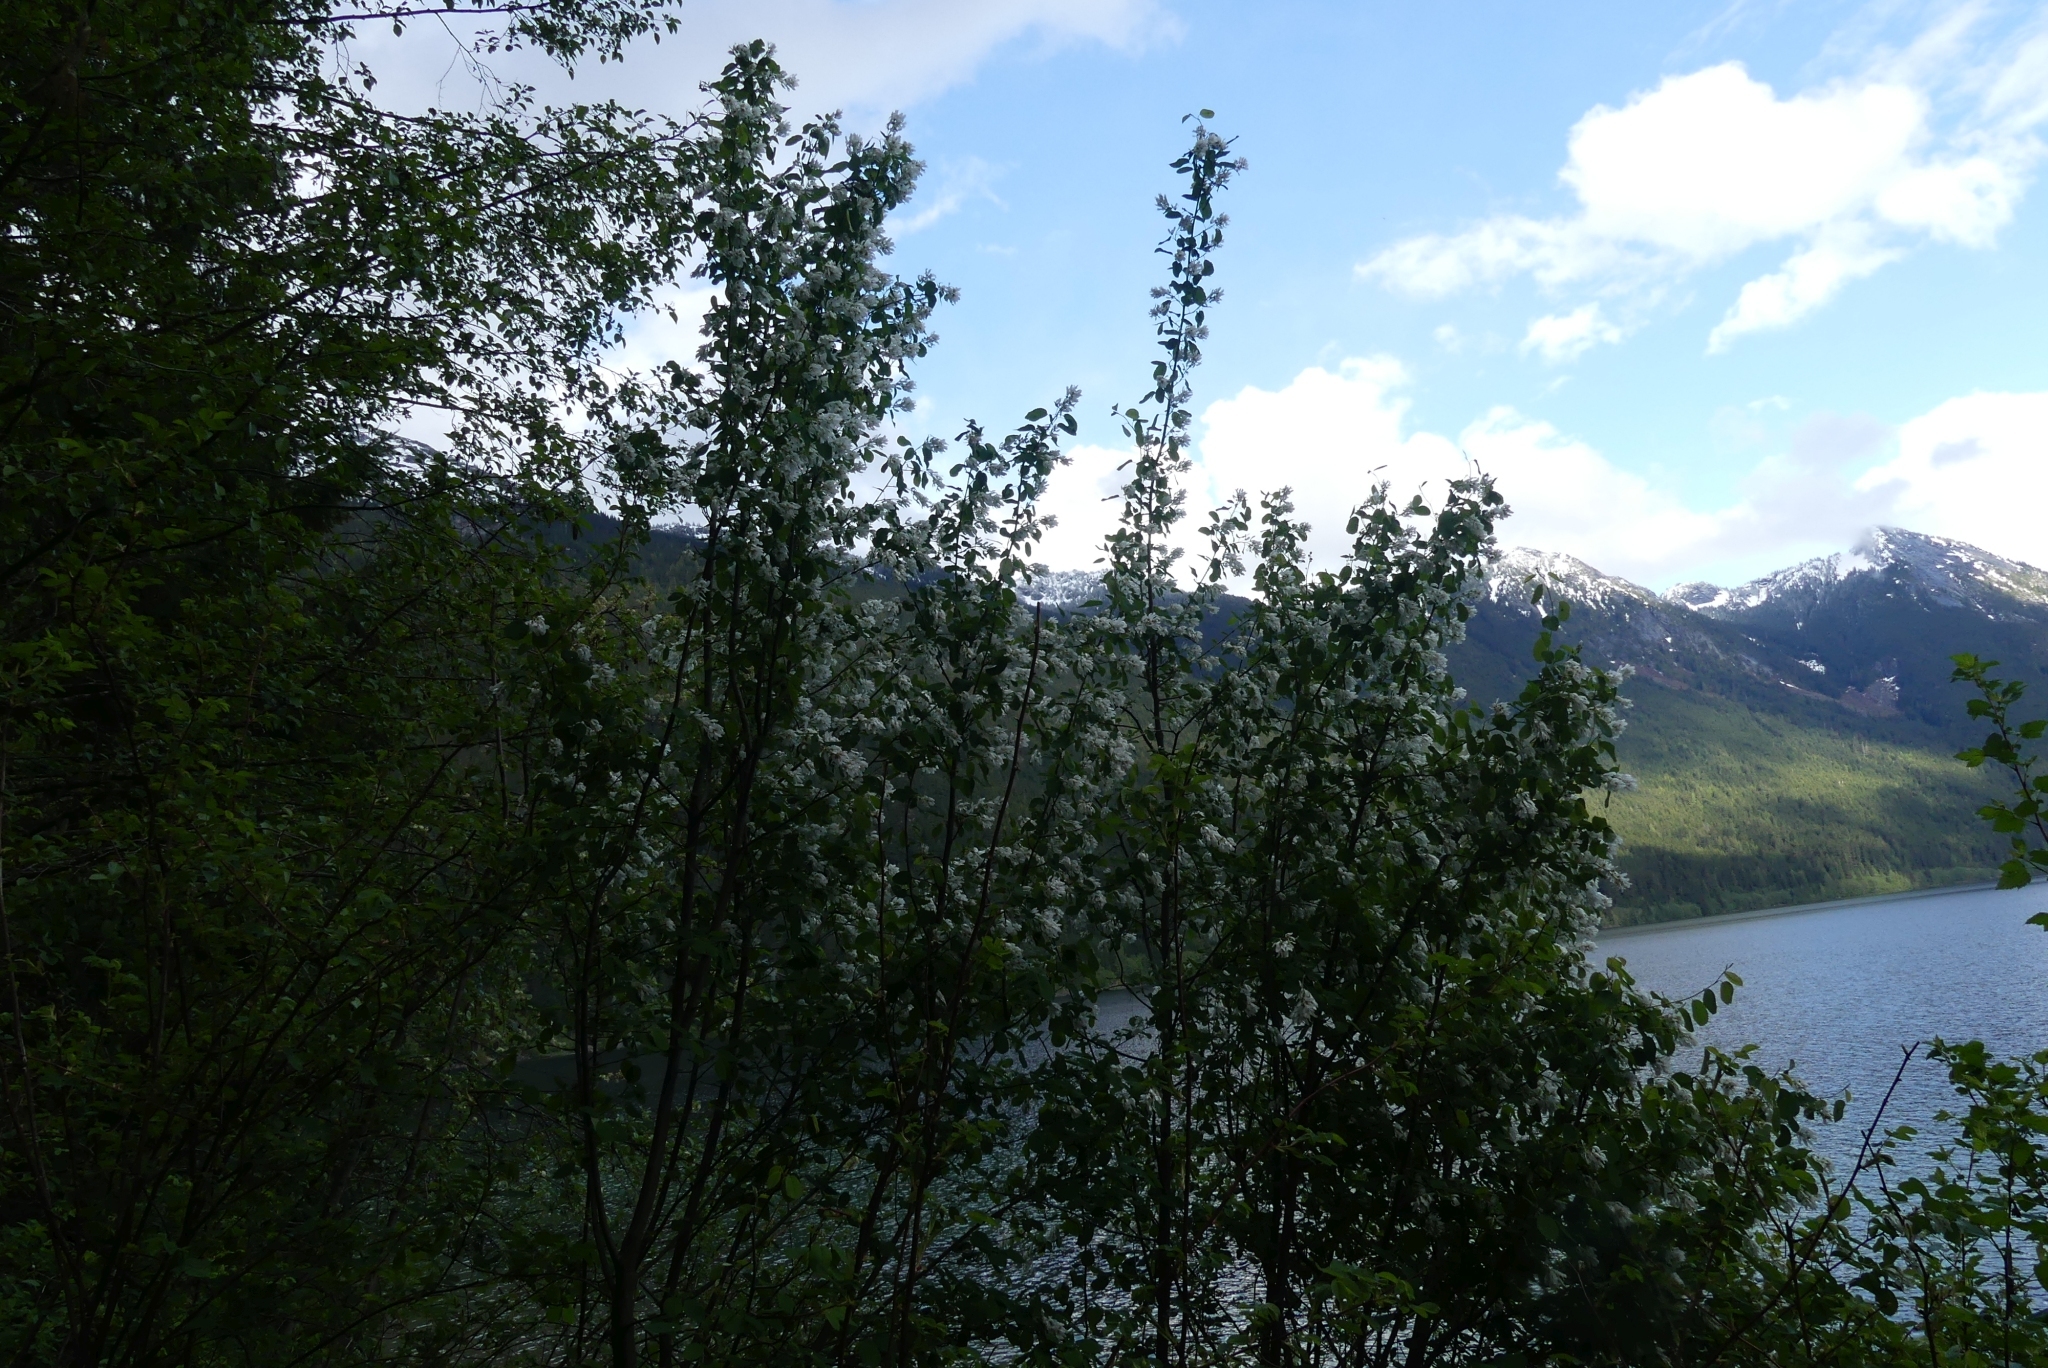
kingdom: Plantae
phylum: Tracheophyta
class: Magnoliopsida
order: Rosales
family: Rosaceae
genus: Amelanchier
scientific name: Amelanchier alnifolia
